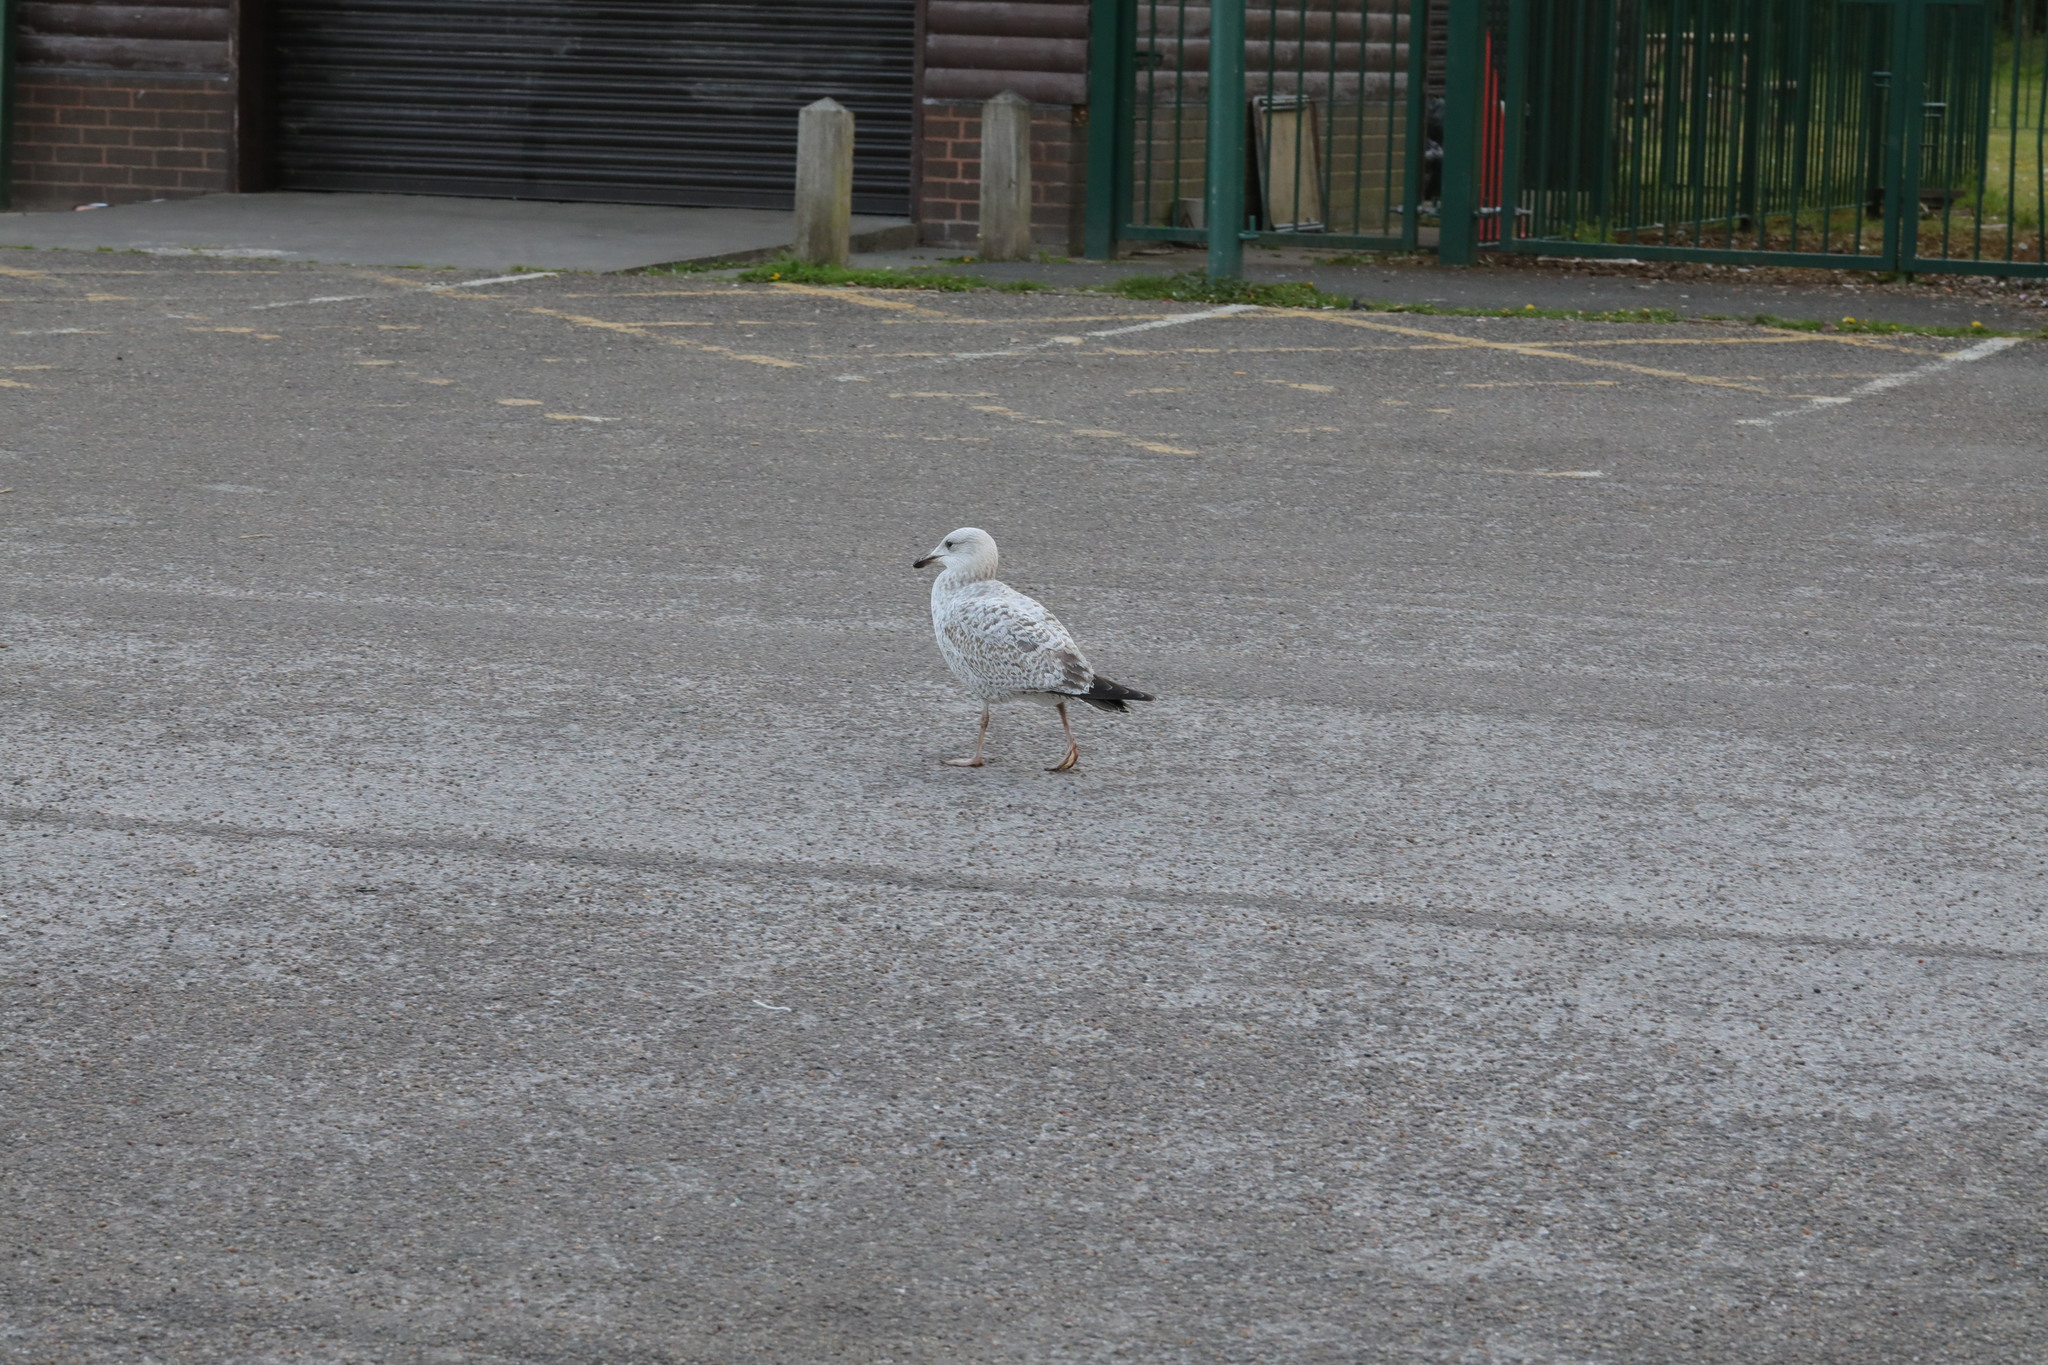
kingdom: Animalia
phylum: Chordata
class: Aves
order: Charadriiformes
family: Laridae
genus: Larus
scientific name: Larus argentatus
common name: Herring gull
